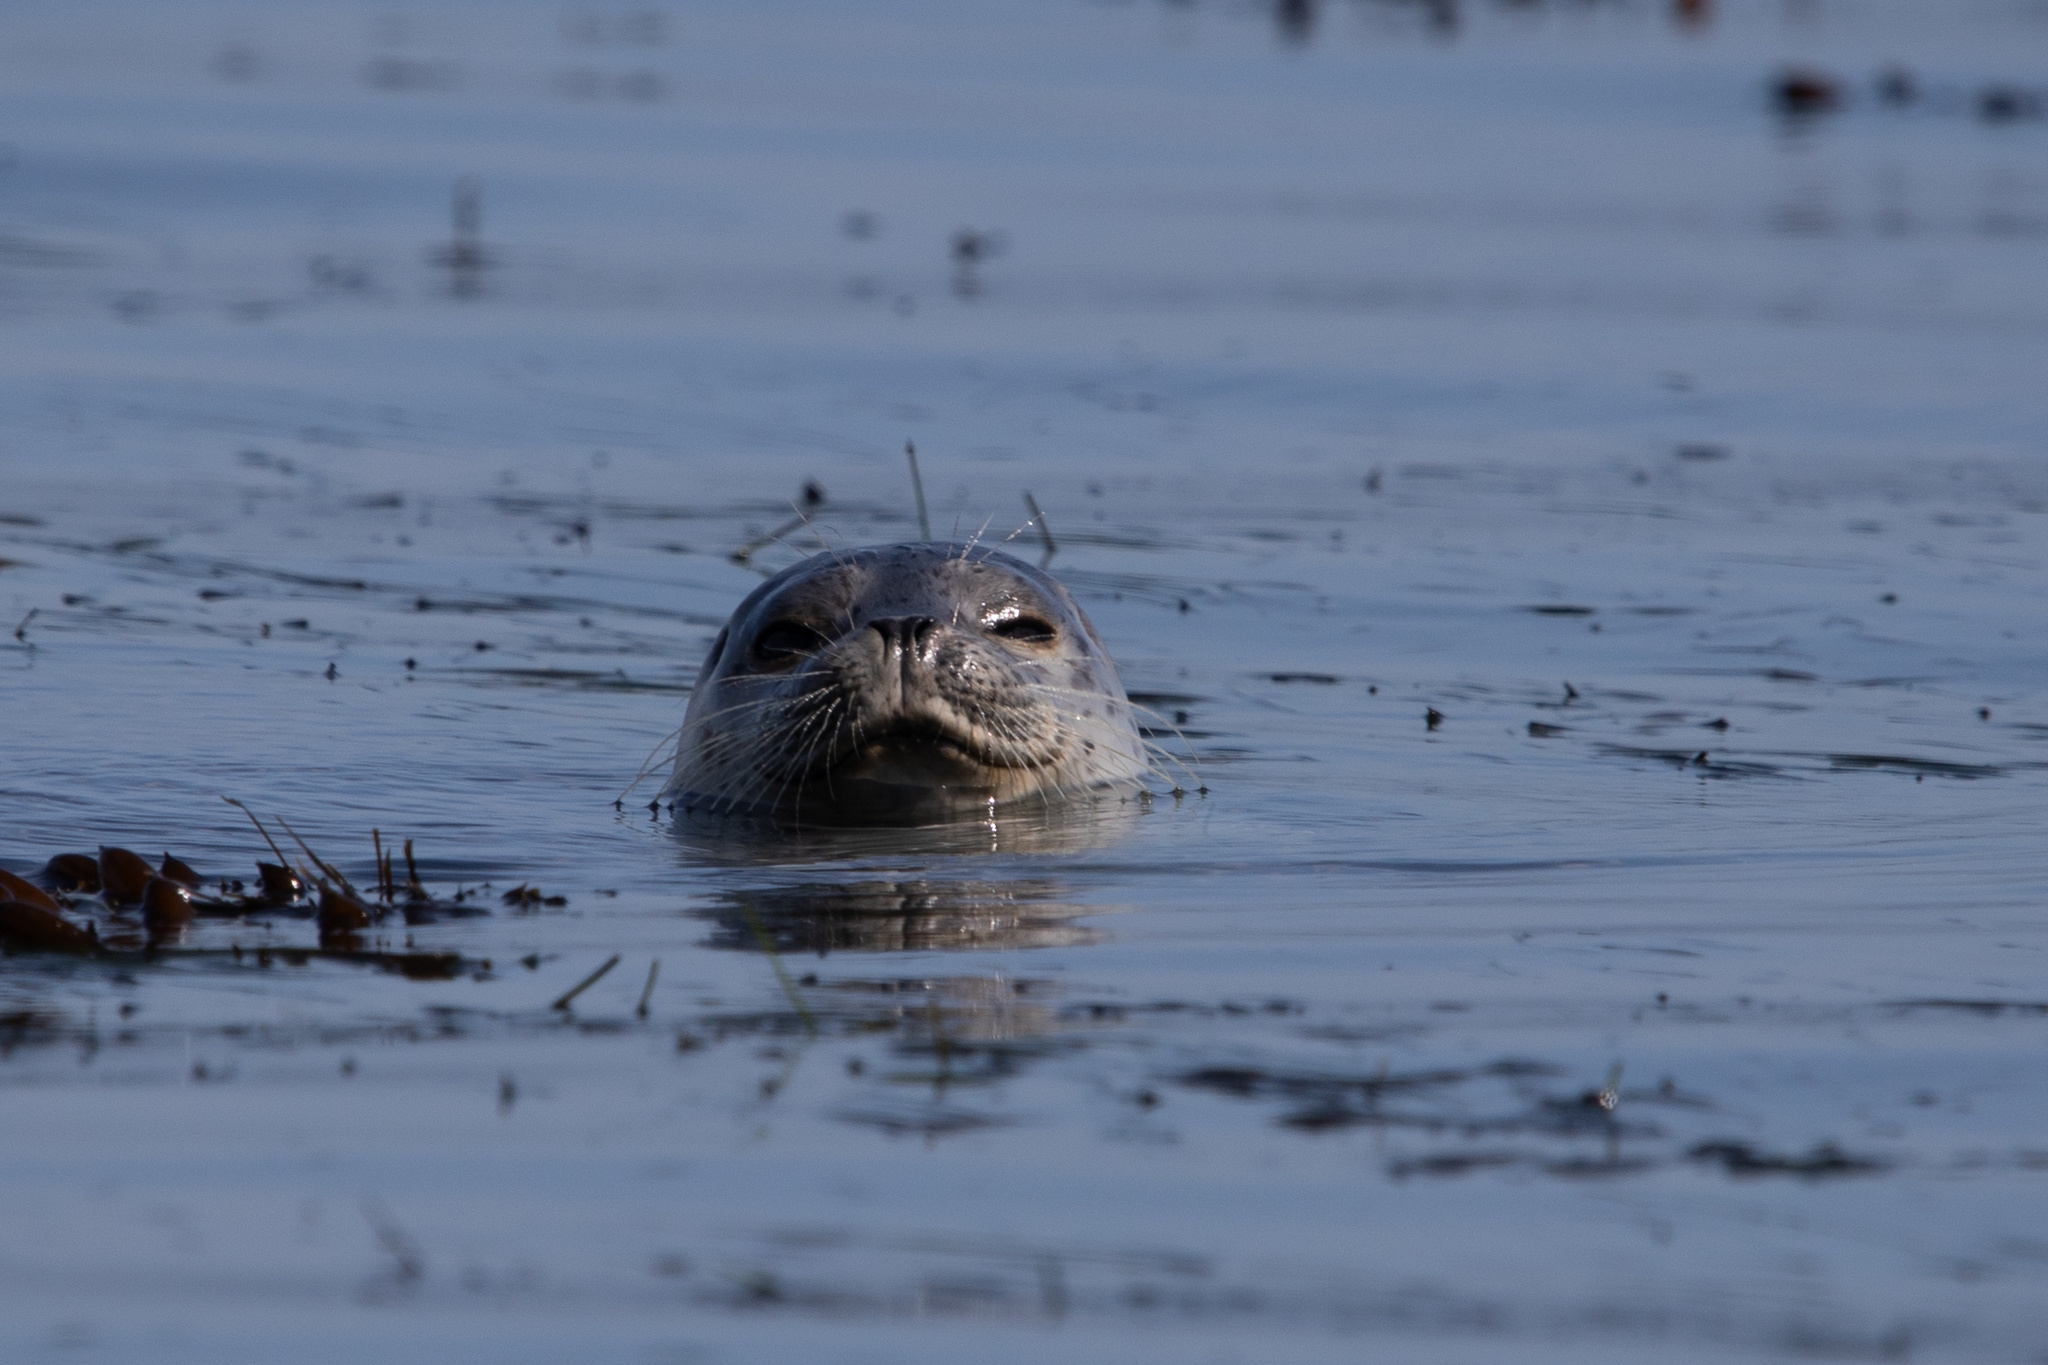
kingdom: Animalia
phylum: Chordata
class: Mammalia
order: Carnivora
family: Phocidae
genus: Phoca
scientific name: Phoca vitulina
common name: Harbor seal
